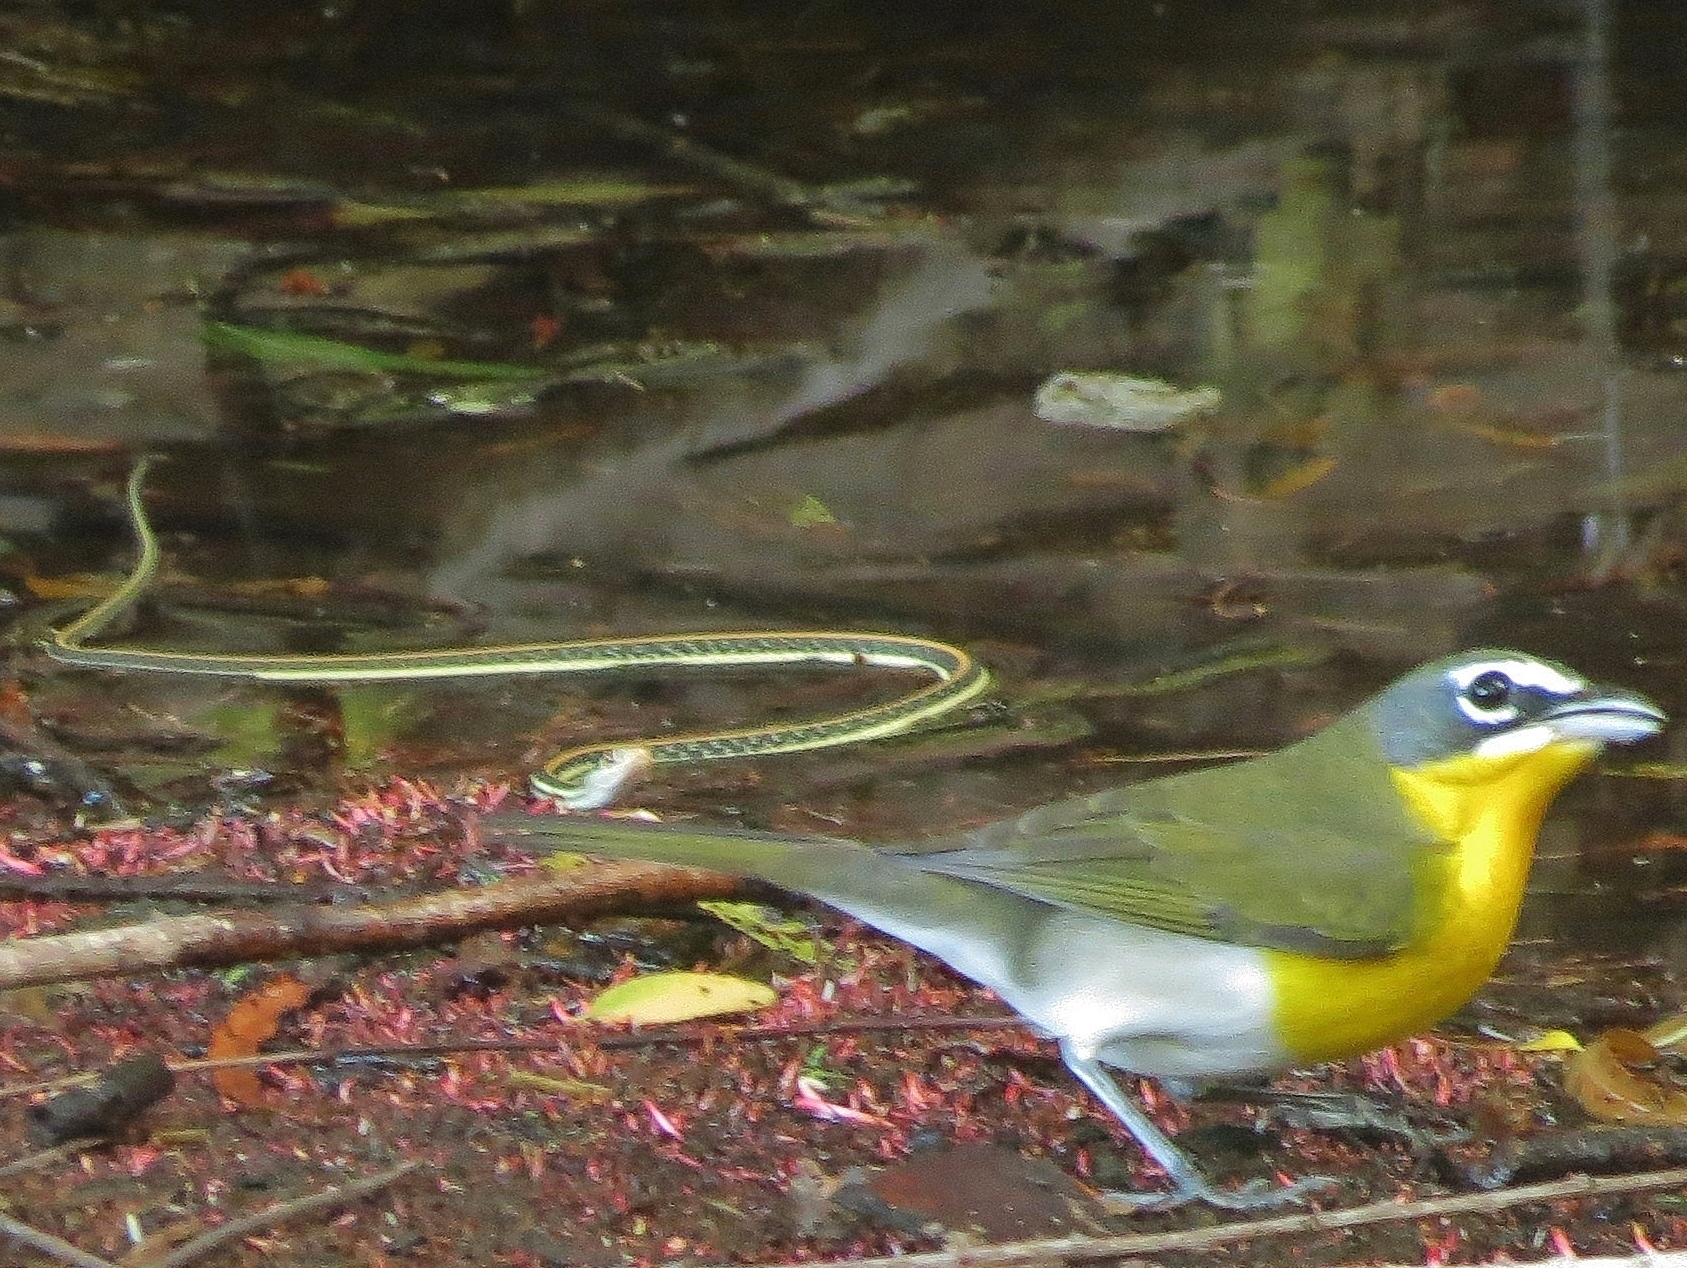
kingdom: Animalia
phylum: Chordata
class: Squamata
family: Colubridae
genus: Thamnophis
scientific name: Thamnophis proximus
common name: Western ribbon snake
